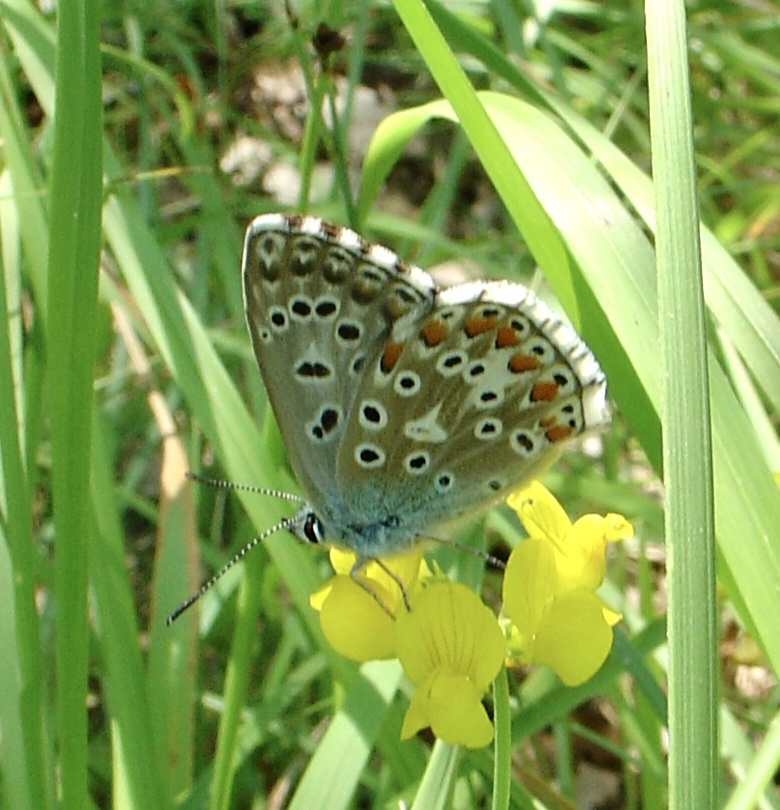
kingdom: Animalia
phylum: Arthropoda
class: Insecta
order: Lepidoptera
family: Lycaenidae
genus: Lysandra
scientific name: Lysandra bellargus
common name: Adonis blue
